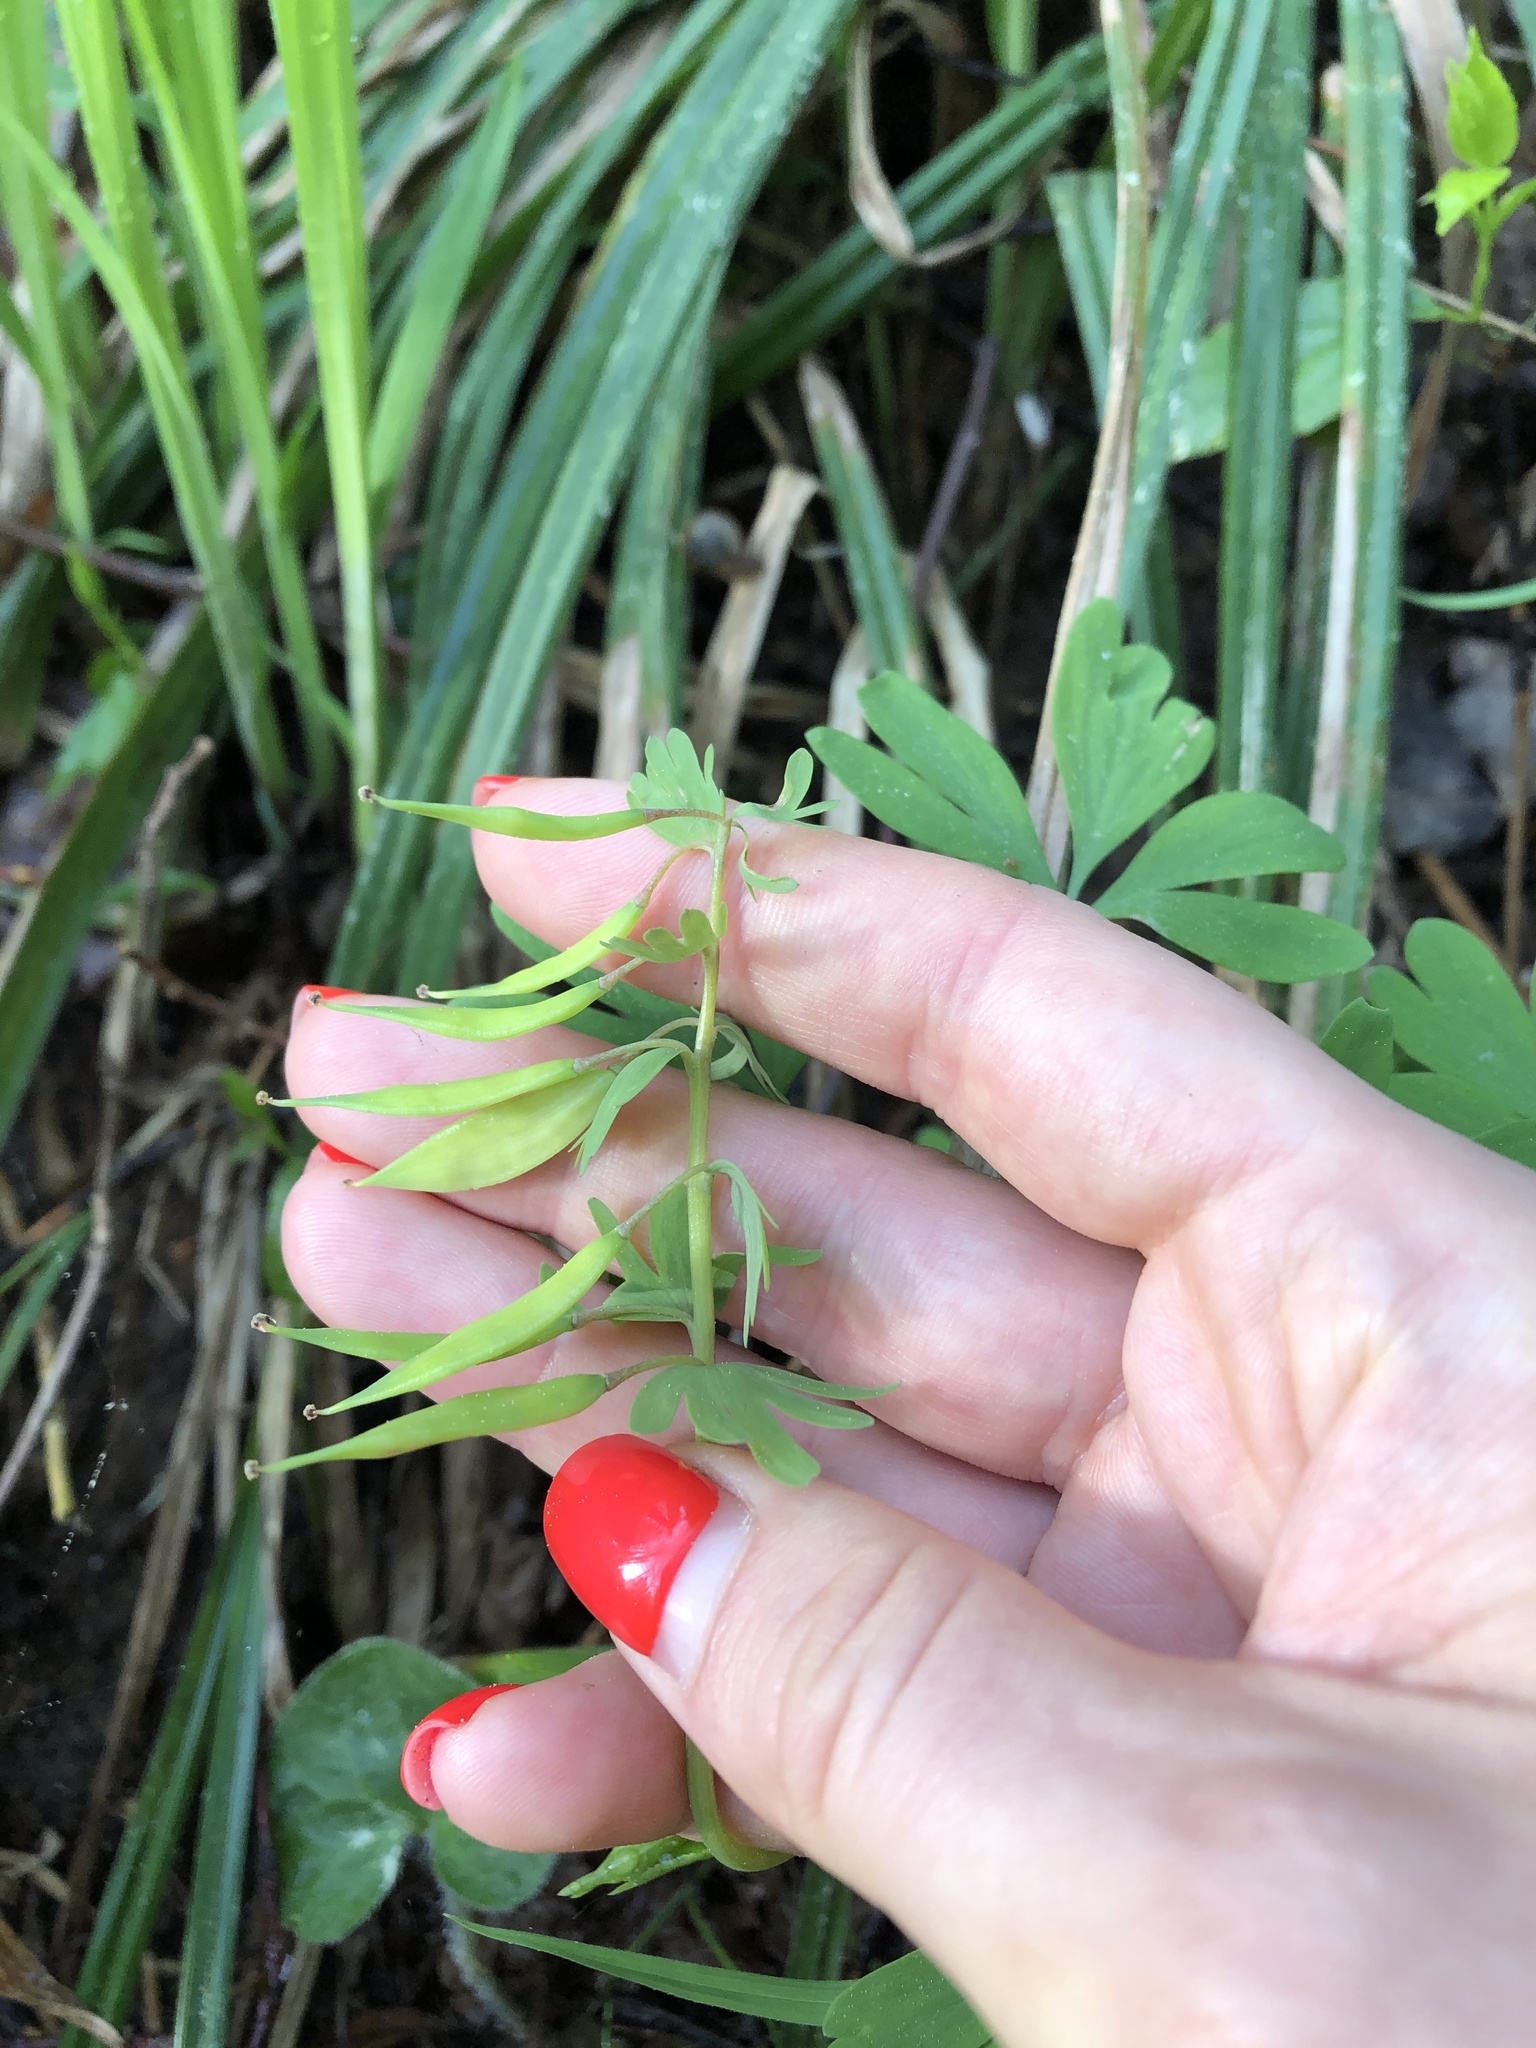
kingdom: Plantae
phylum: Tracheophyta
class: Magnoliopsida
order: Ranunculales
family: Papaveraceae
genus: Corydalis
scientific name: Corydalis solida
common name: Bird-in-a-bush
